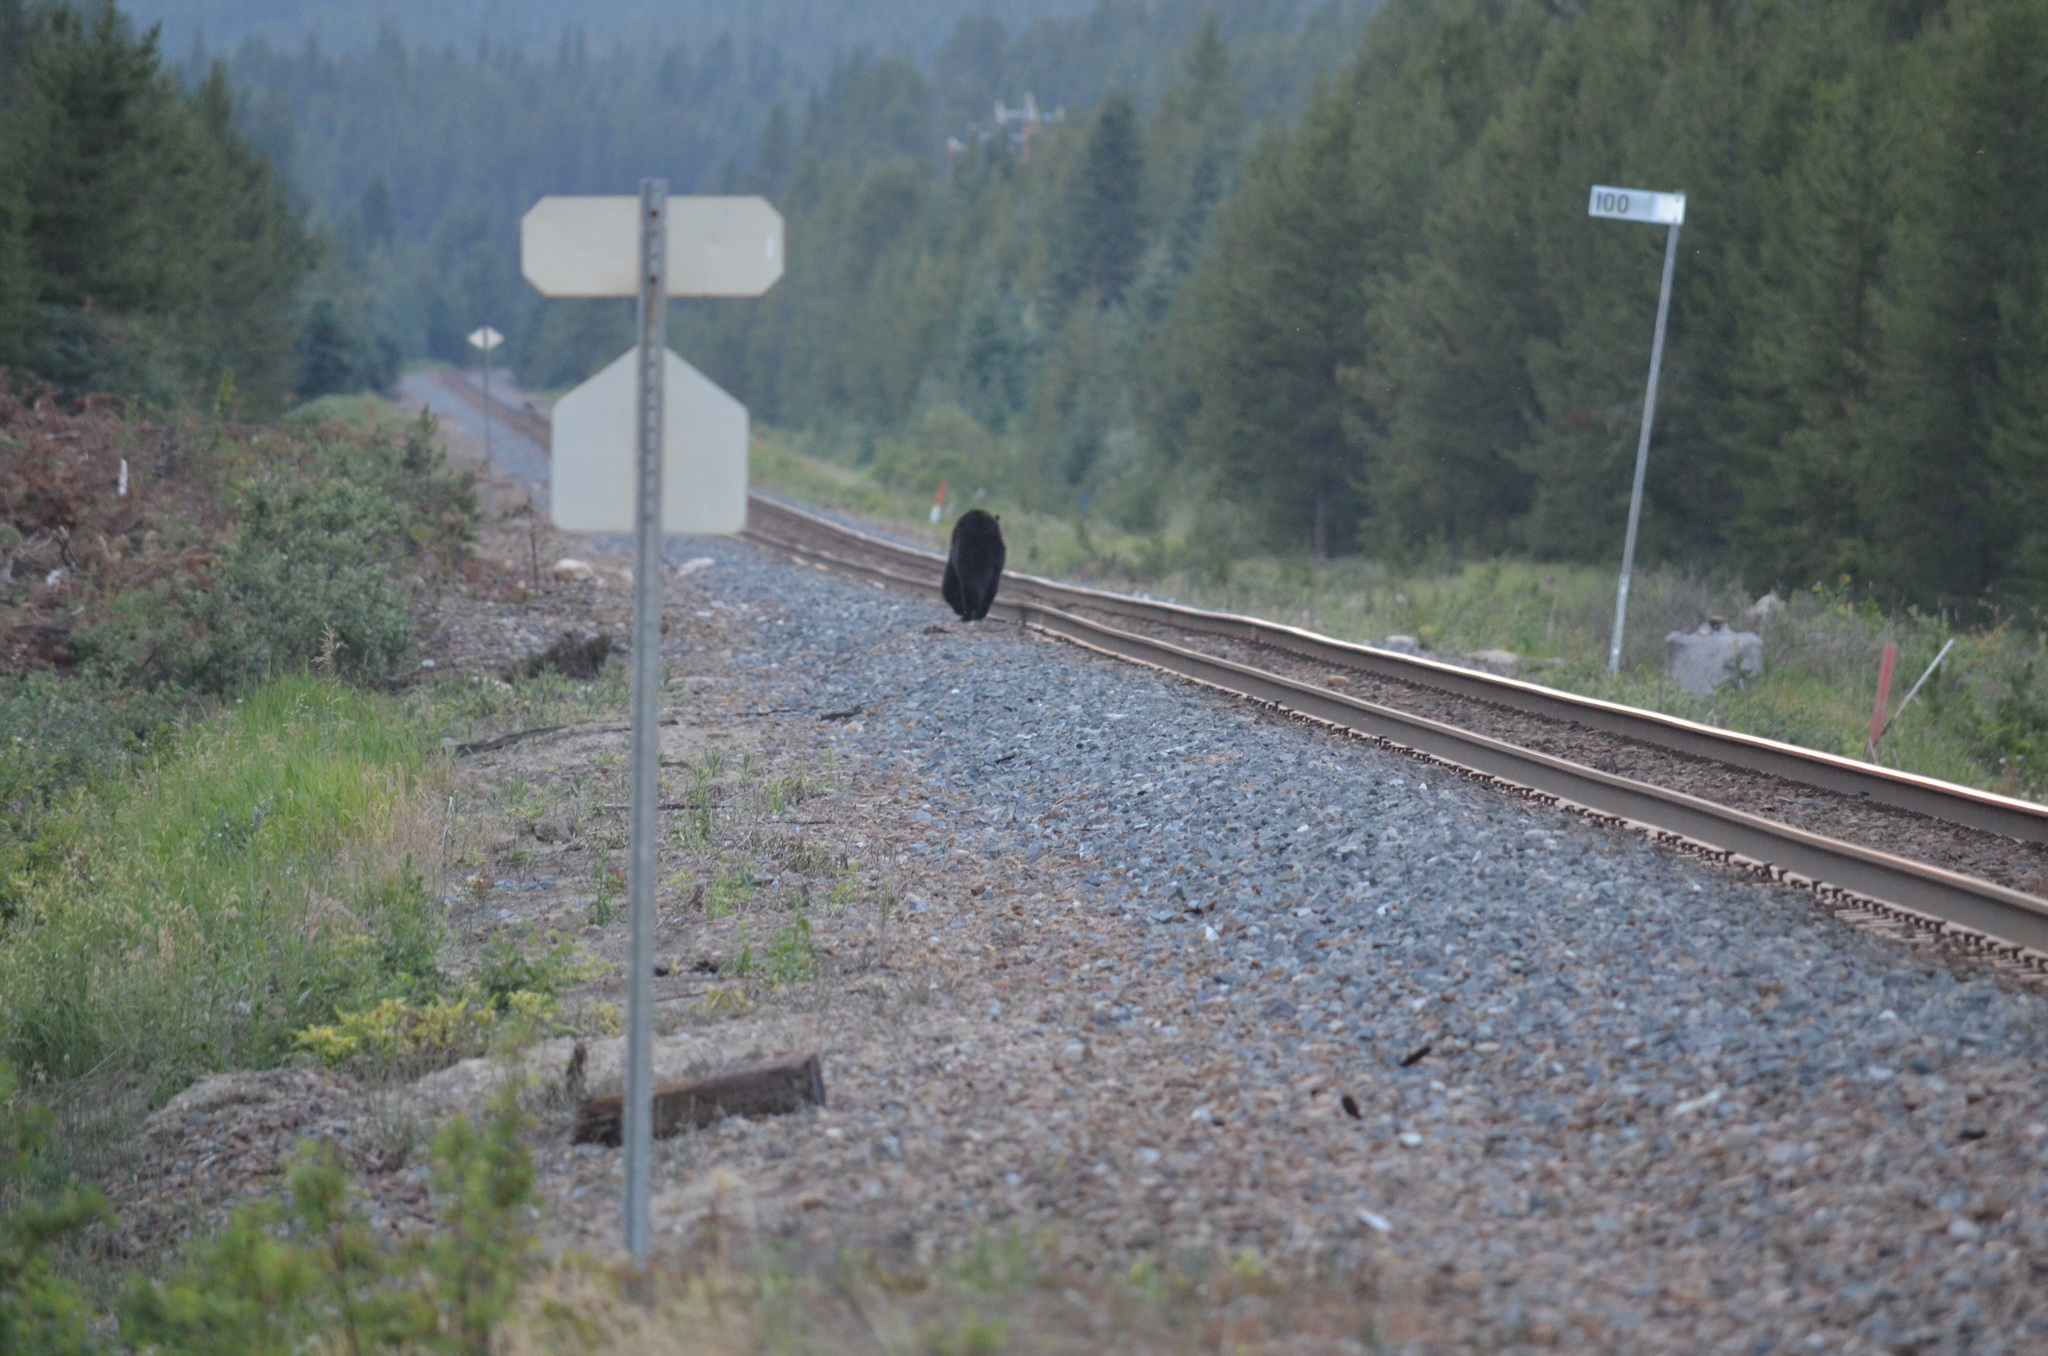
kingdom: Animalia
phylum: Chordata
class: Mammalia
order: Carnivora
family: Ursidae
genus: Ursus
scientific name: Ursus americanus
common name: American black bear
